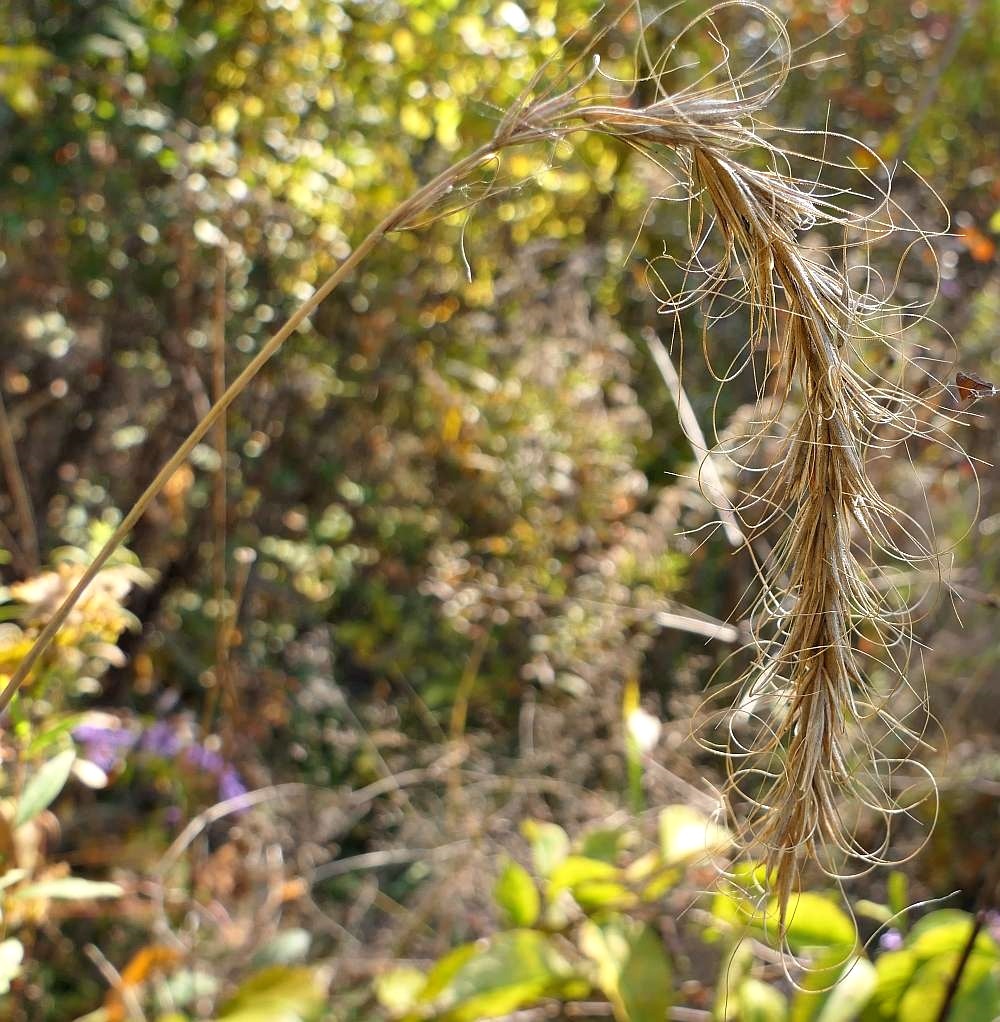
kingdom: Plantae
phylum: Tracheophyta
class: Liliopsida
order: Poales
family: Poaceae
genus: Elymus
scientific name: Elymus canadensis
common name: Canada wild rye
